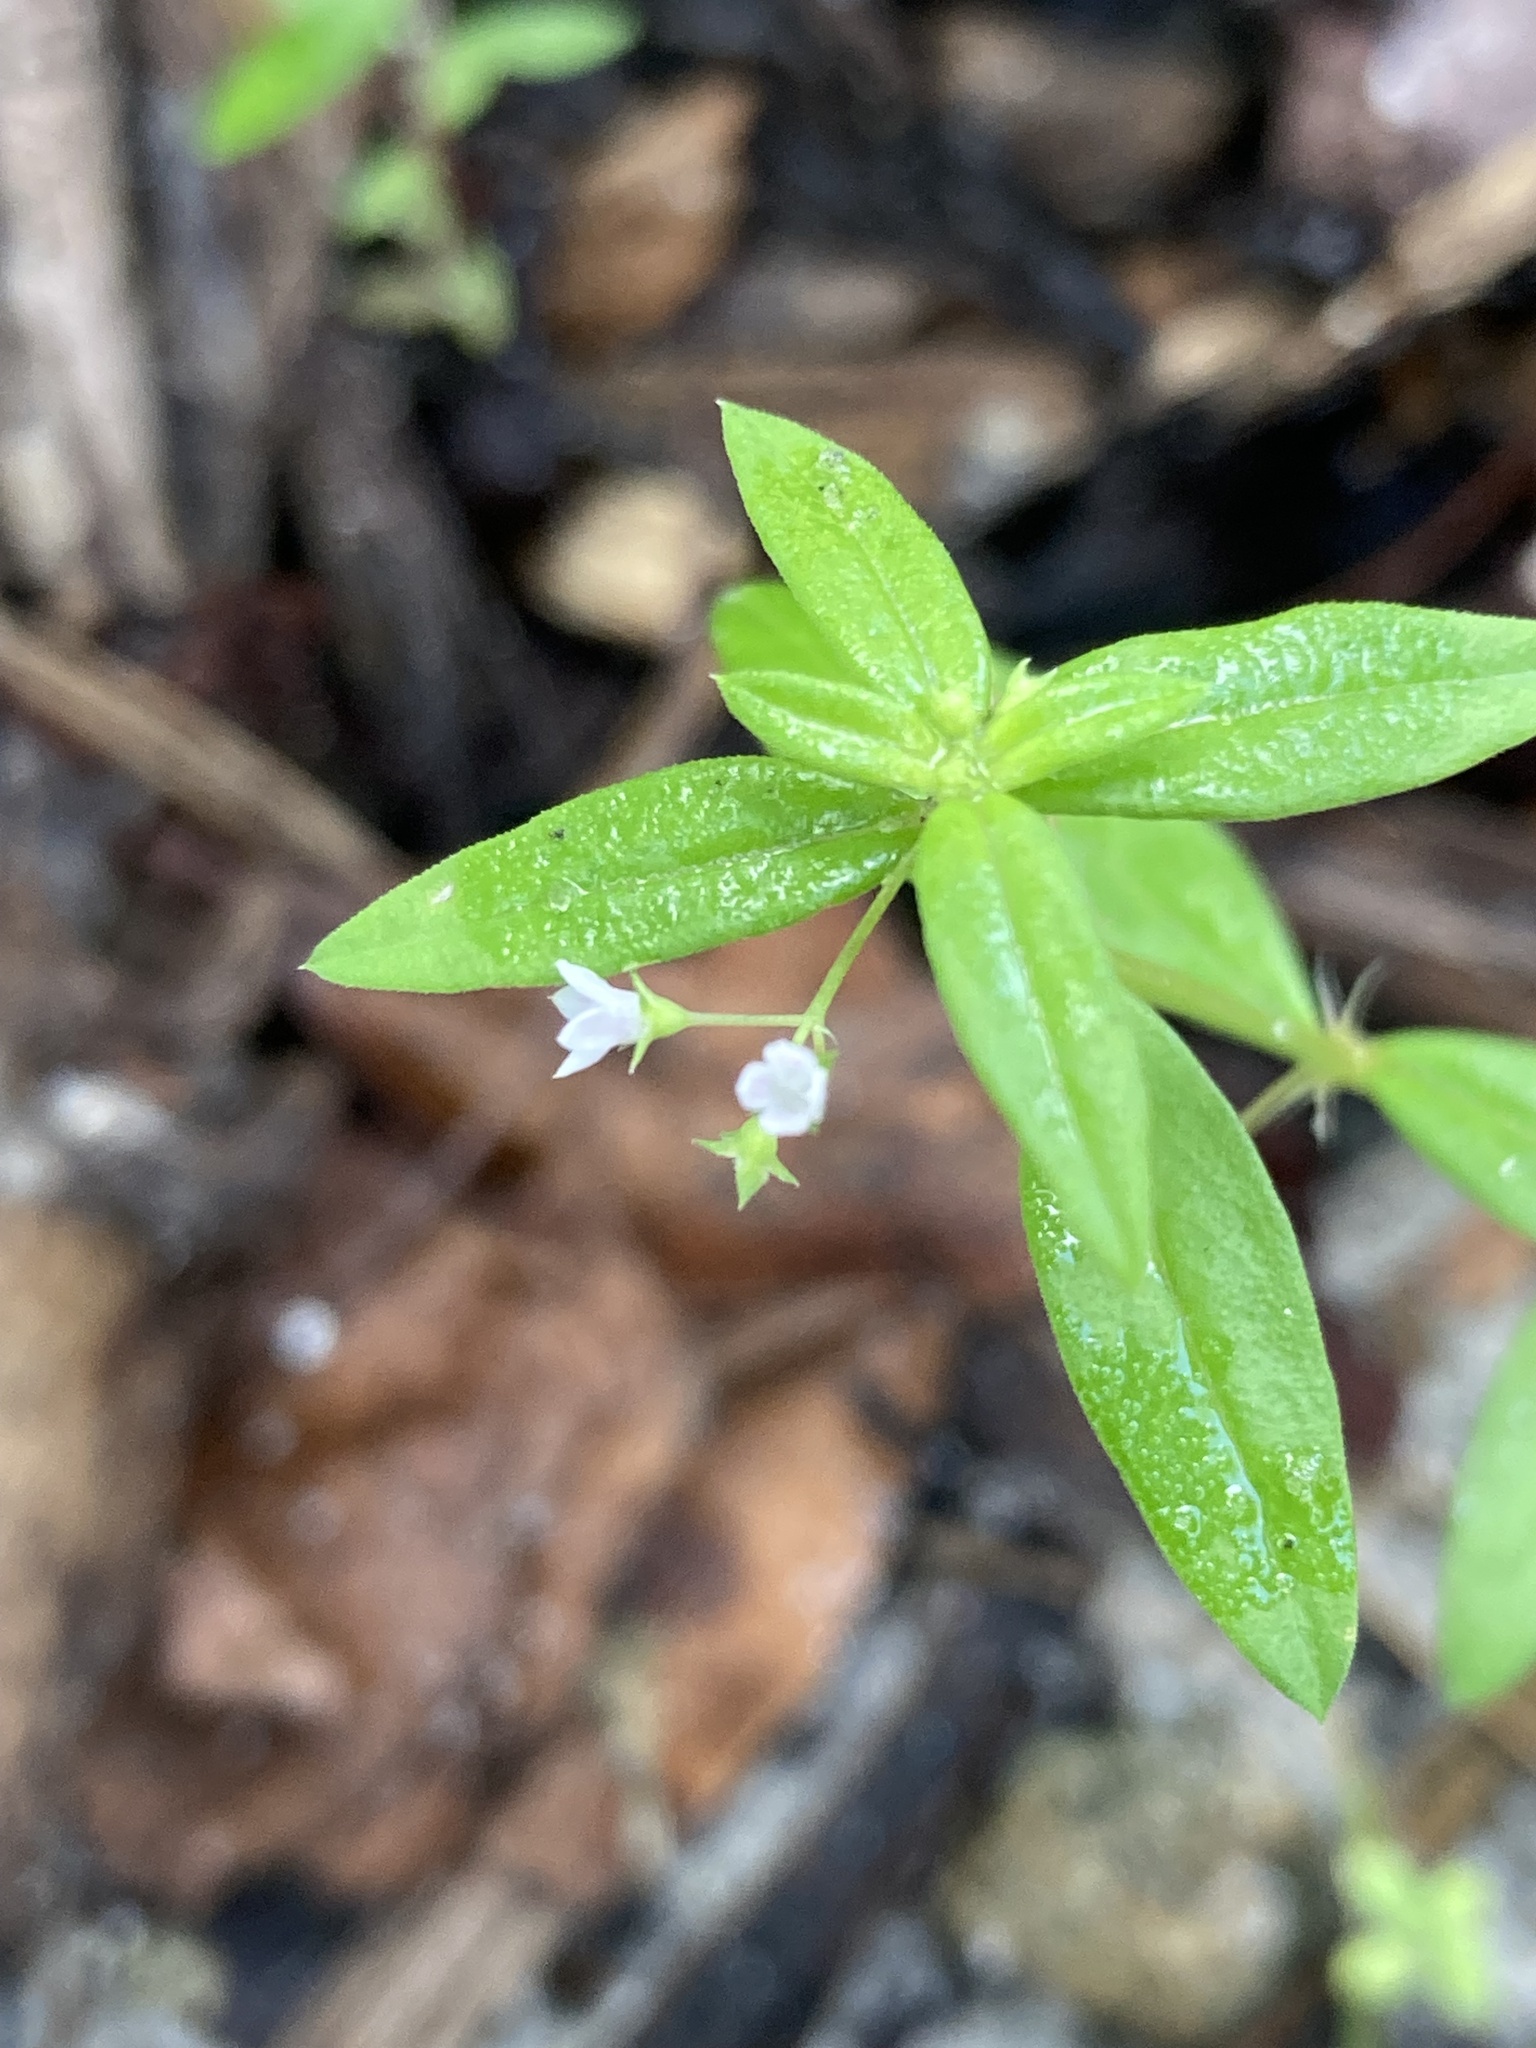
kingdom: Plantae
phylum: Tracheophyta
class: Magnoliopsida
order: Gentianales
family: Rubiaceae
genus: Oldenlandia
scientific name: Oldenlandia corymbosa
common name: Flat-top mille graines
